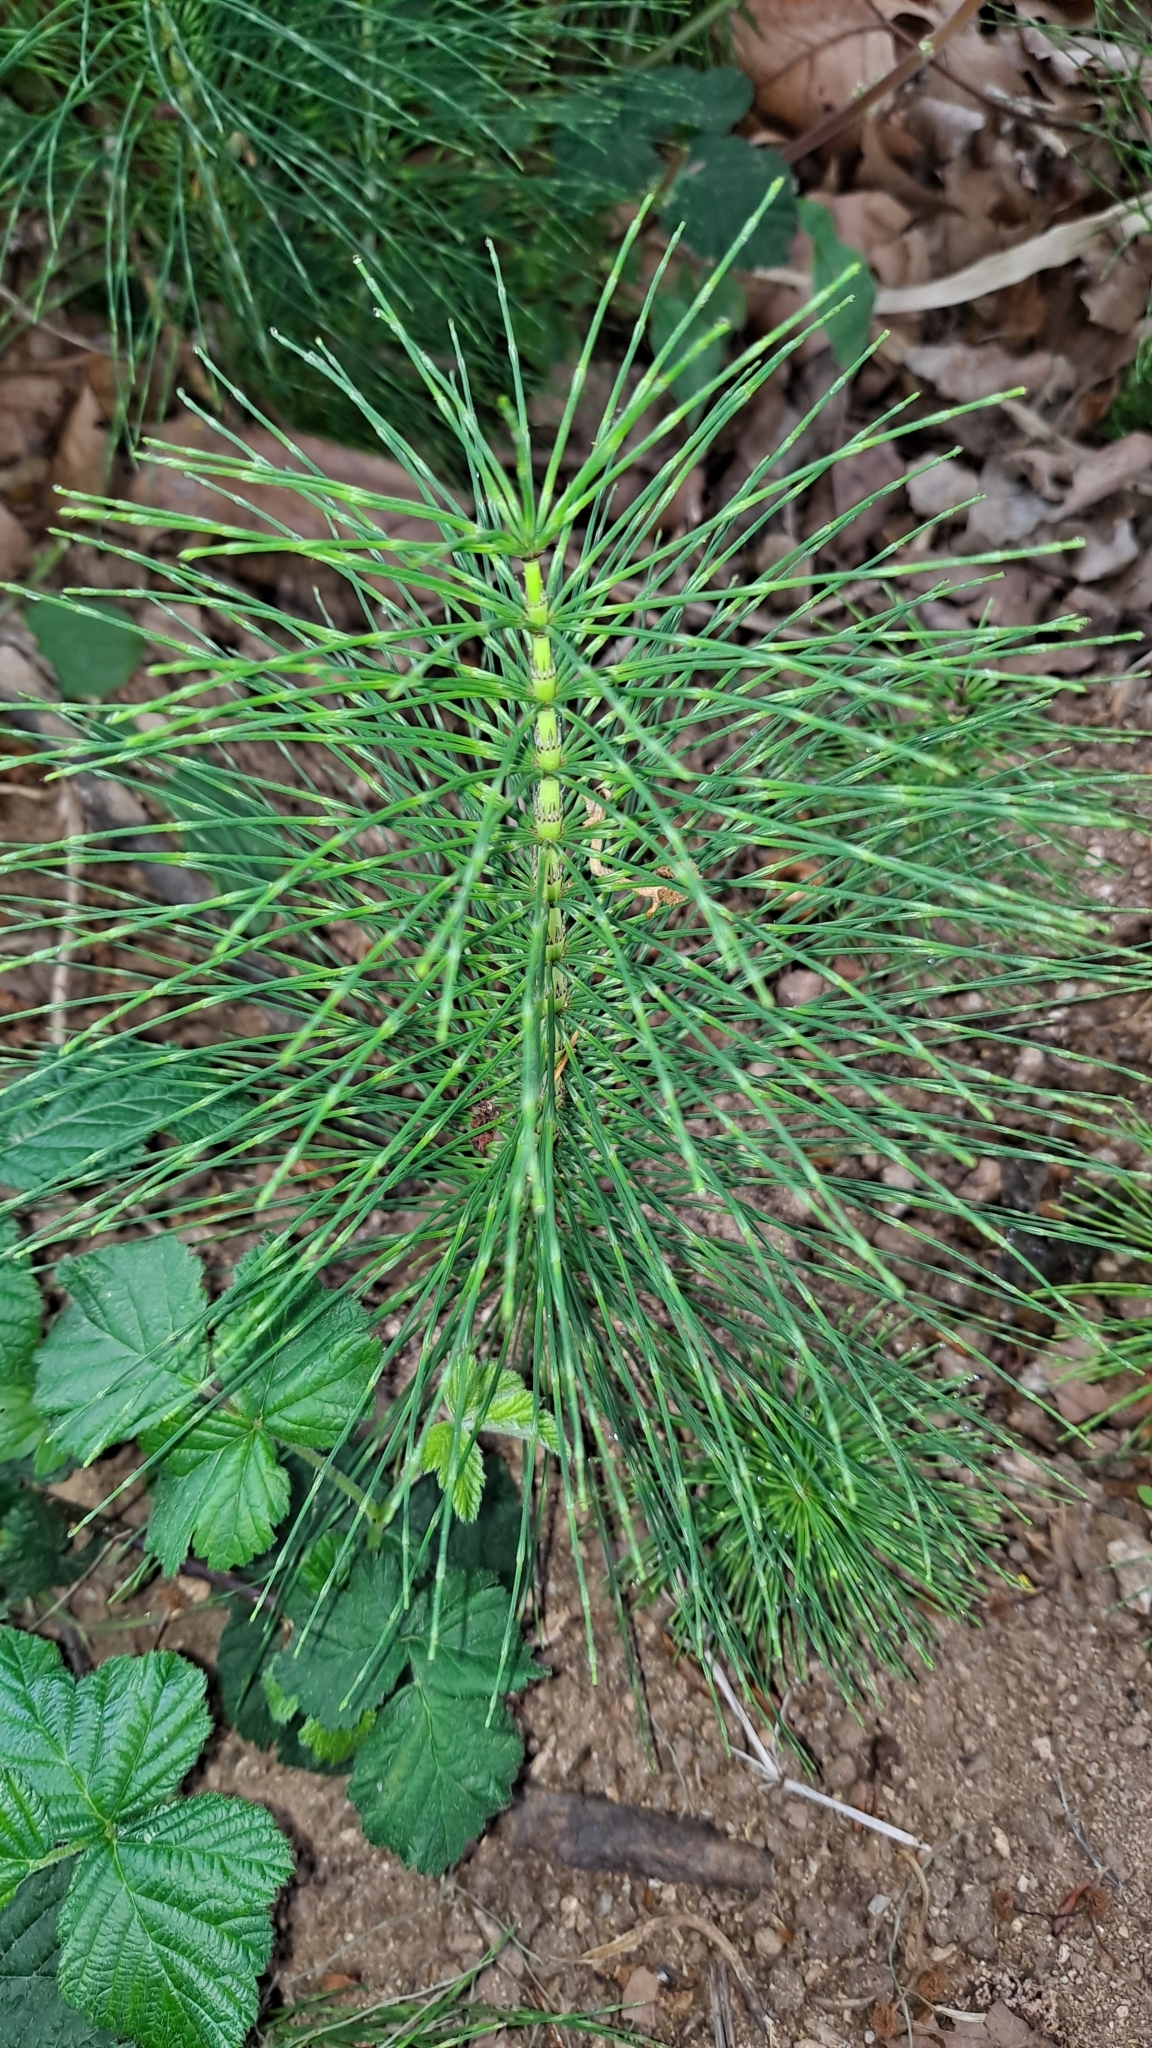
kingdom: Plantae
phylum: Tracheophyta
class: Polypodiopsida
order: Equisetales
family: Equisetaceae
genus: Equisetum
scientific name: Equisetum telmateia
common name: Great horsetail
